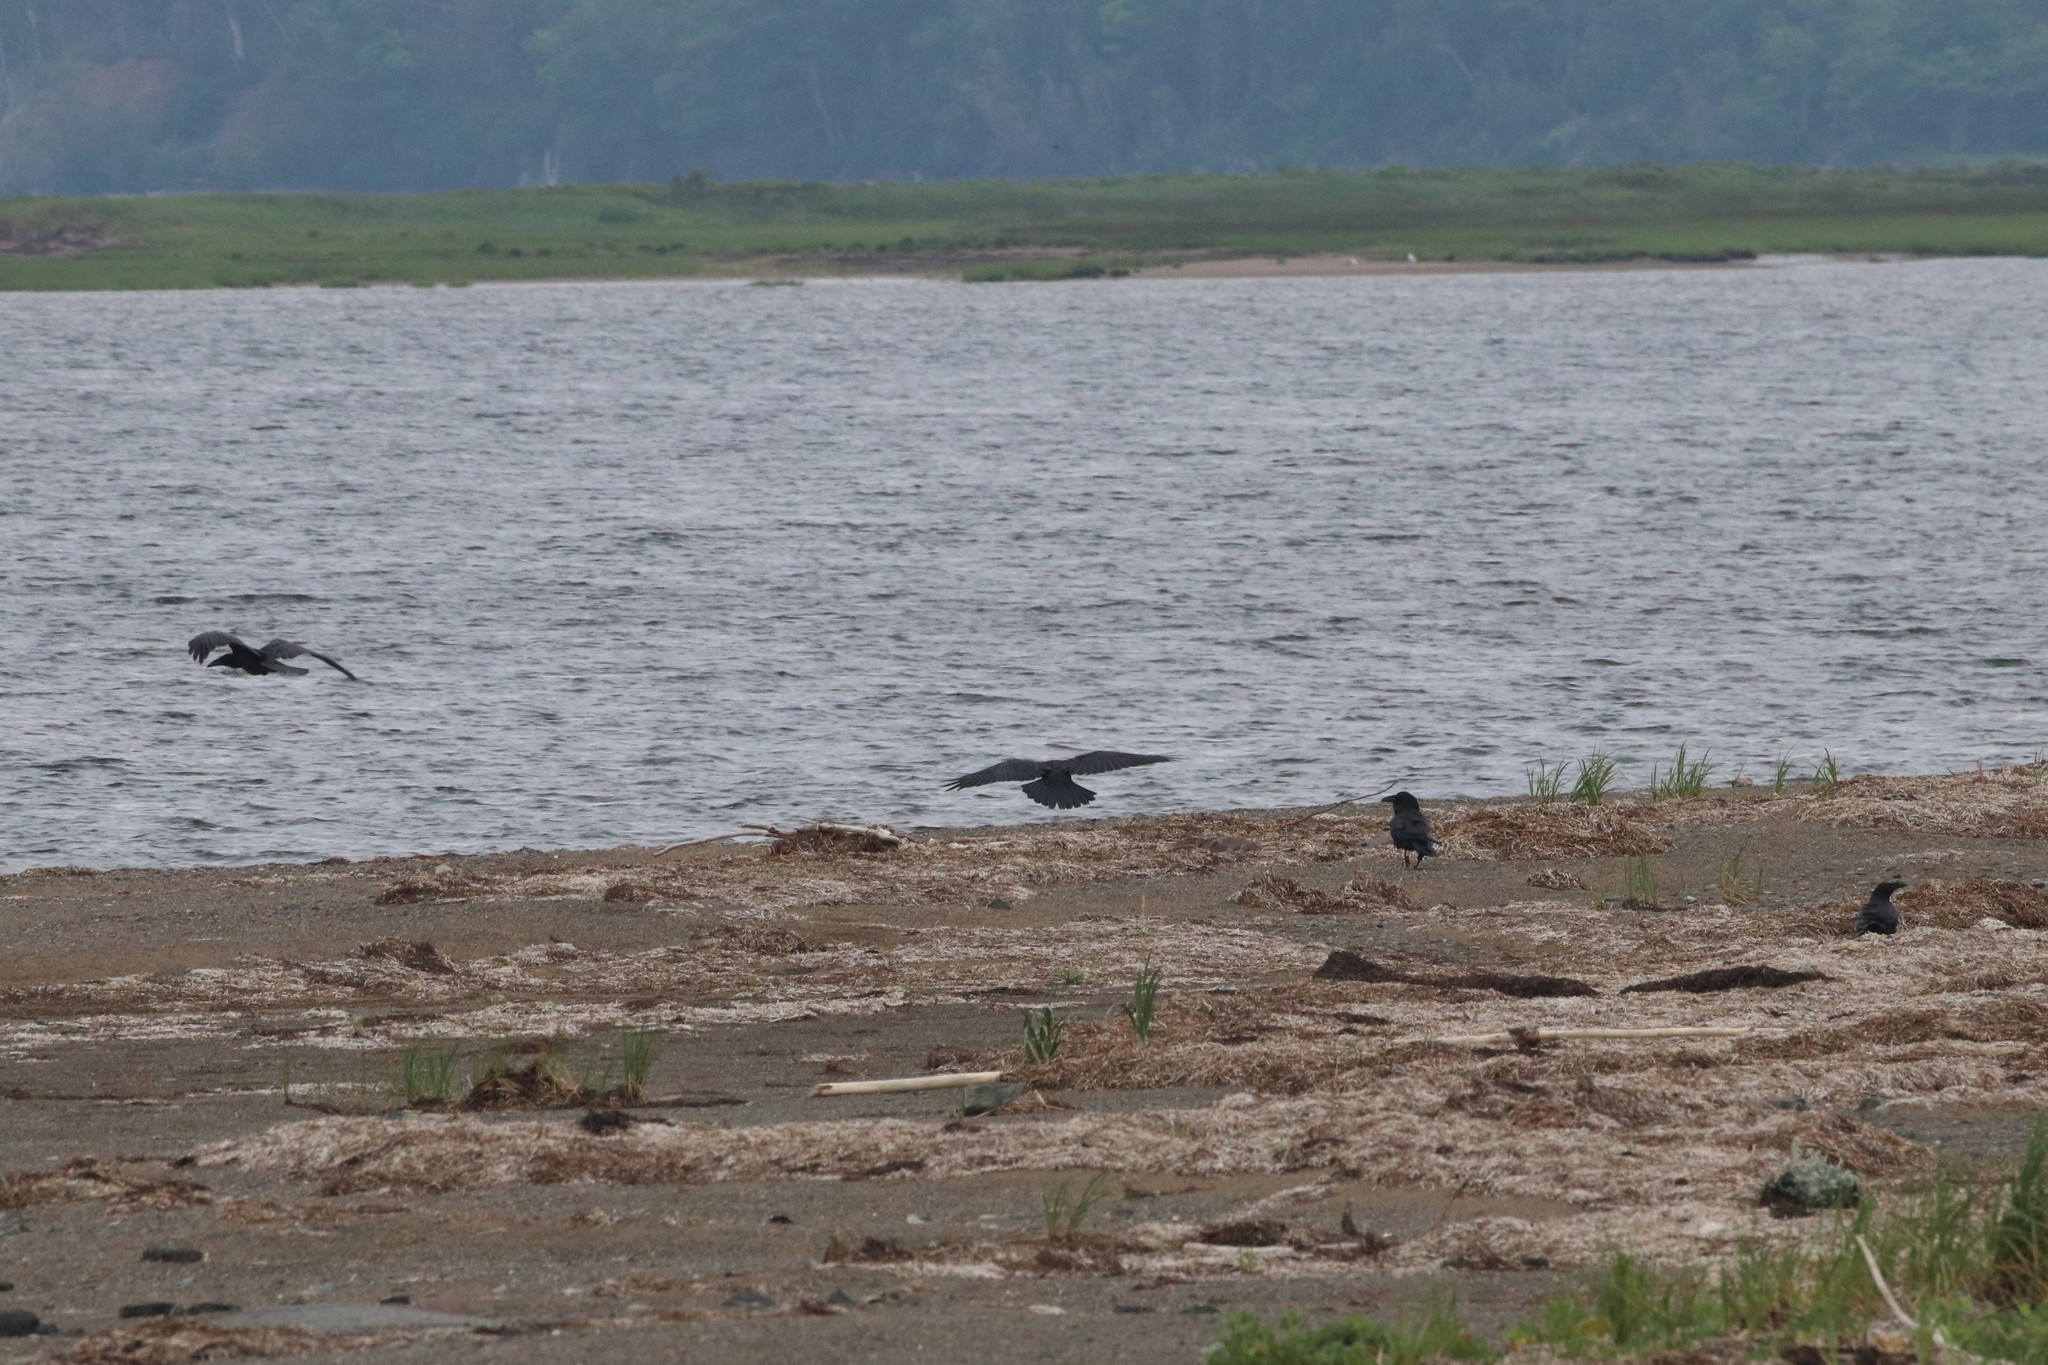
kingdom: Animalia
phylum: Chordata
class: Aves
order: Passeriformes
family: Corvidae
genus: Corvus
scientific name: Corvus corax
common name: Common raven
